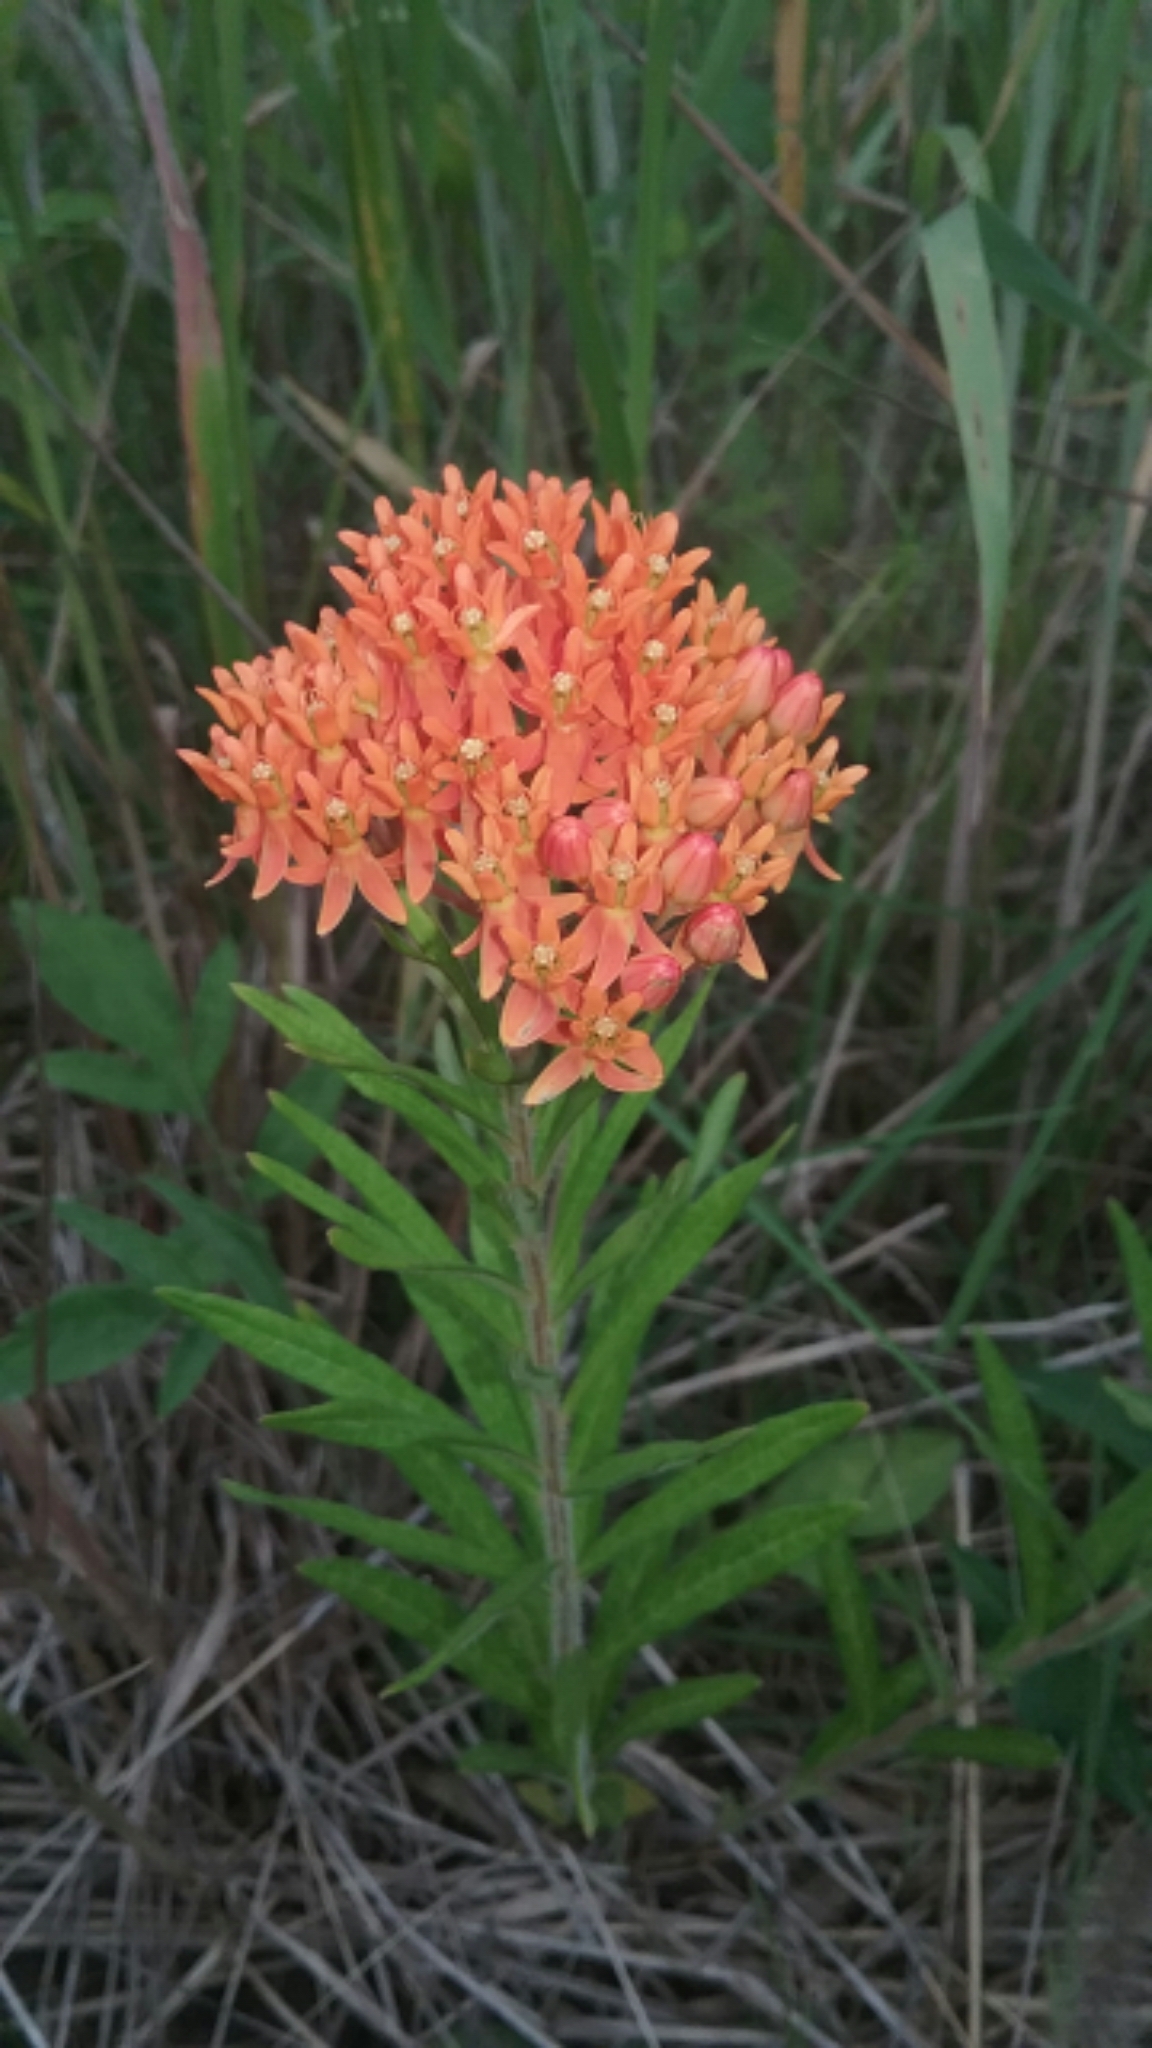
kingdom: Plantae
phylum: Tracheophyta
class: Magnoliopsida
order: Gentianales
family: Apocynaceae
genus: Asclepias
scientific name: Asclepias tuberosa
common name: Butterfly milkweed
